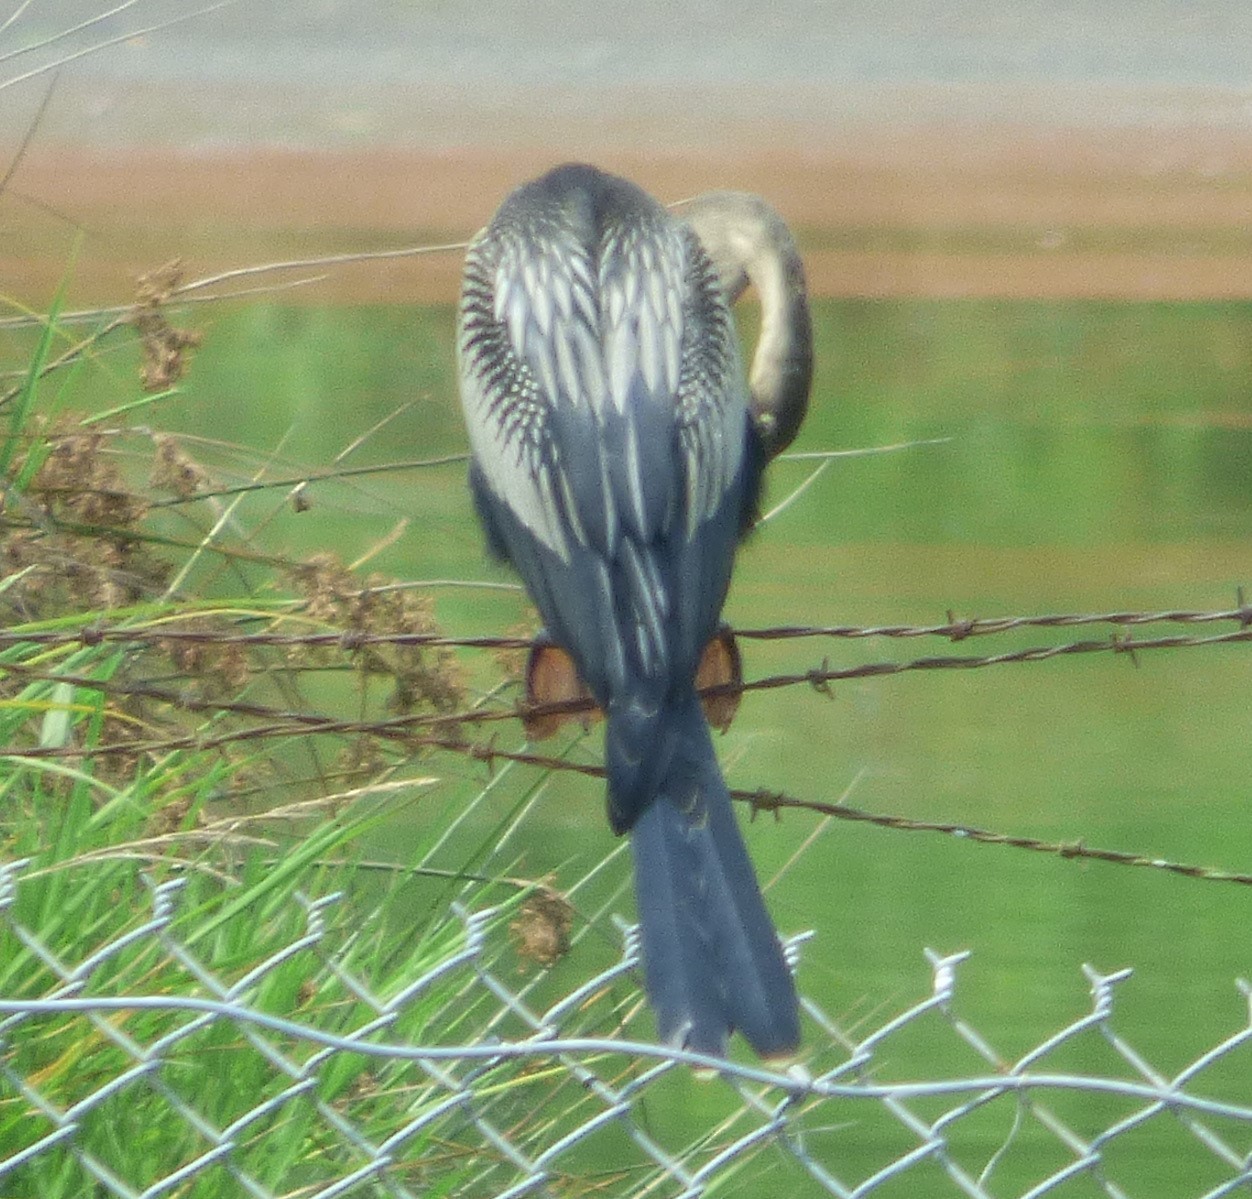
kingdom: Animalia
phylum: Chordata
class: Aves
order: Suliformes
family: Anhingidae
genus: Anhinga
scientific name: Anhinga anhinga
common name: Anhinga
